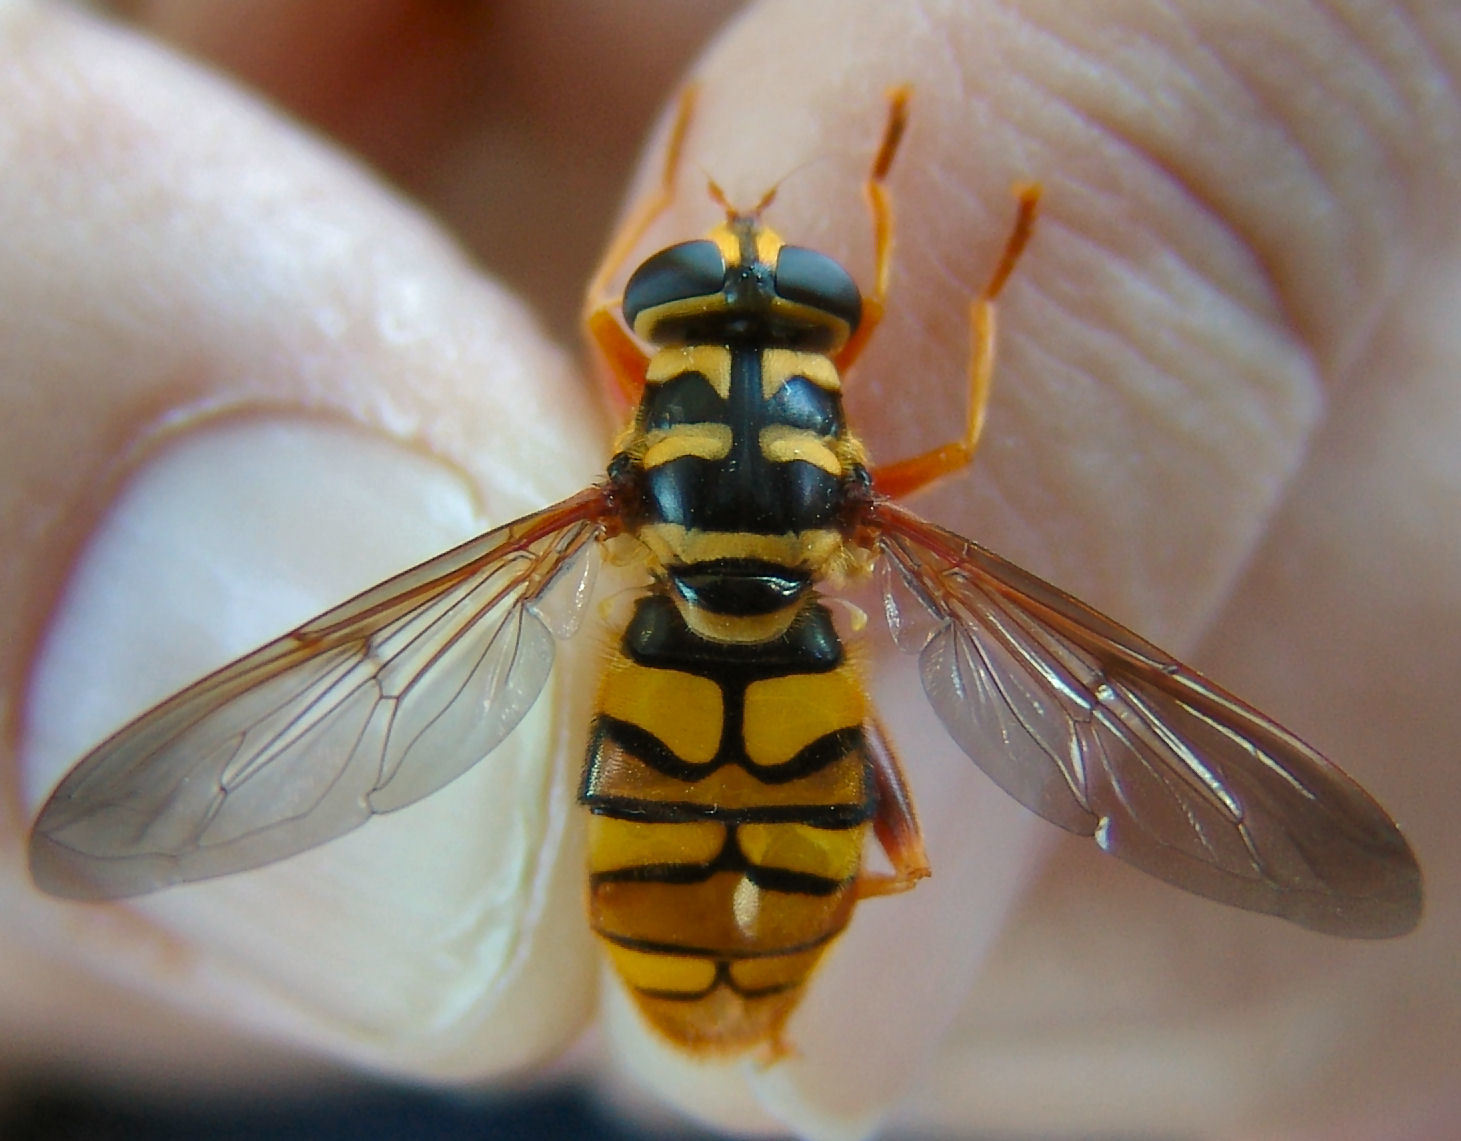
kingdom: Animalia
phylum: Arthropoda
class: Insecta
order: Diptera
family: Syrphidae
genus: Milesia
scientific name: Milesia virginiensis
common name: Virginia giant
